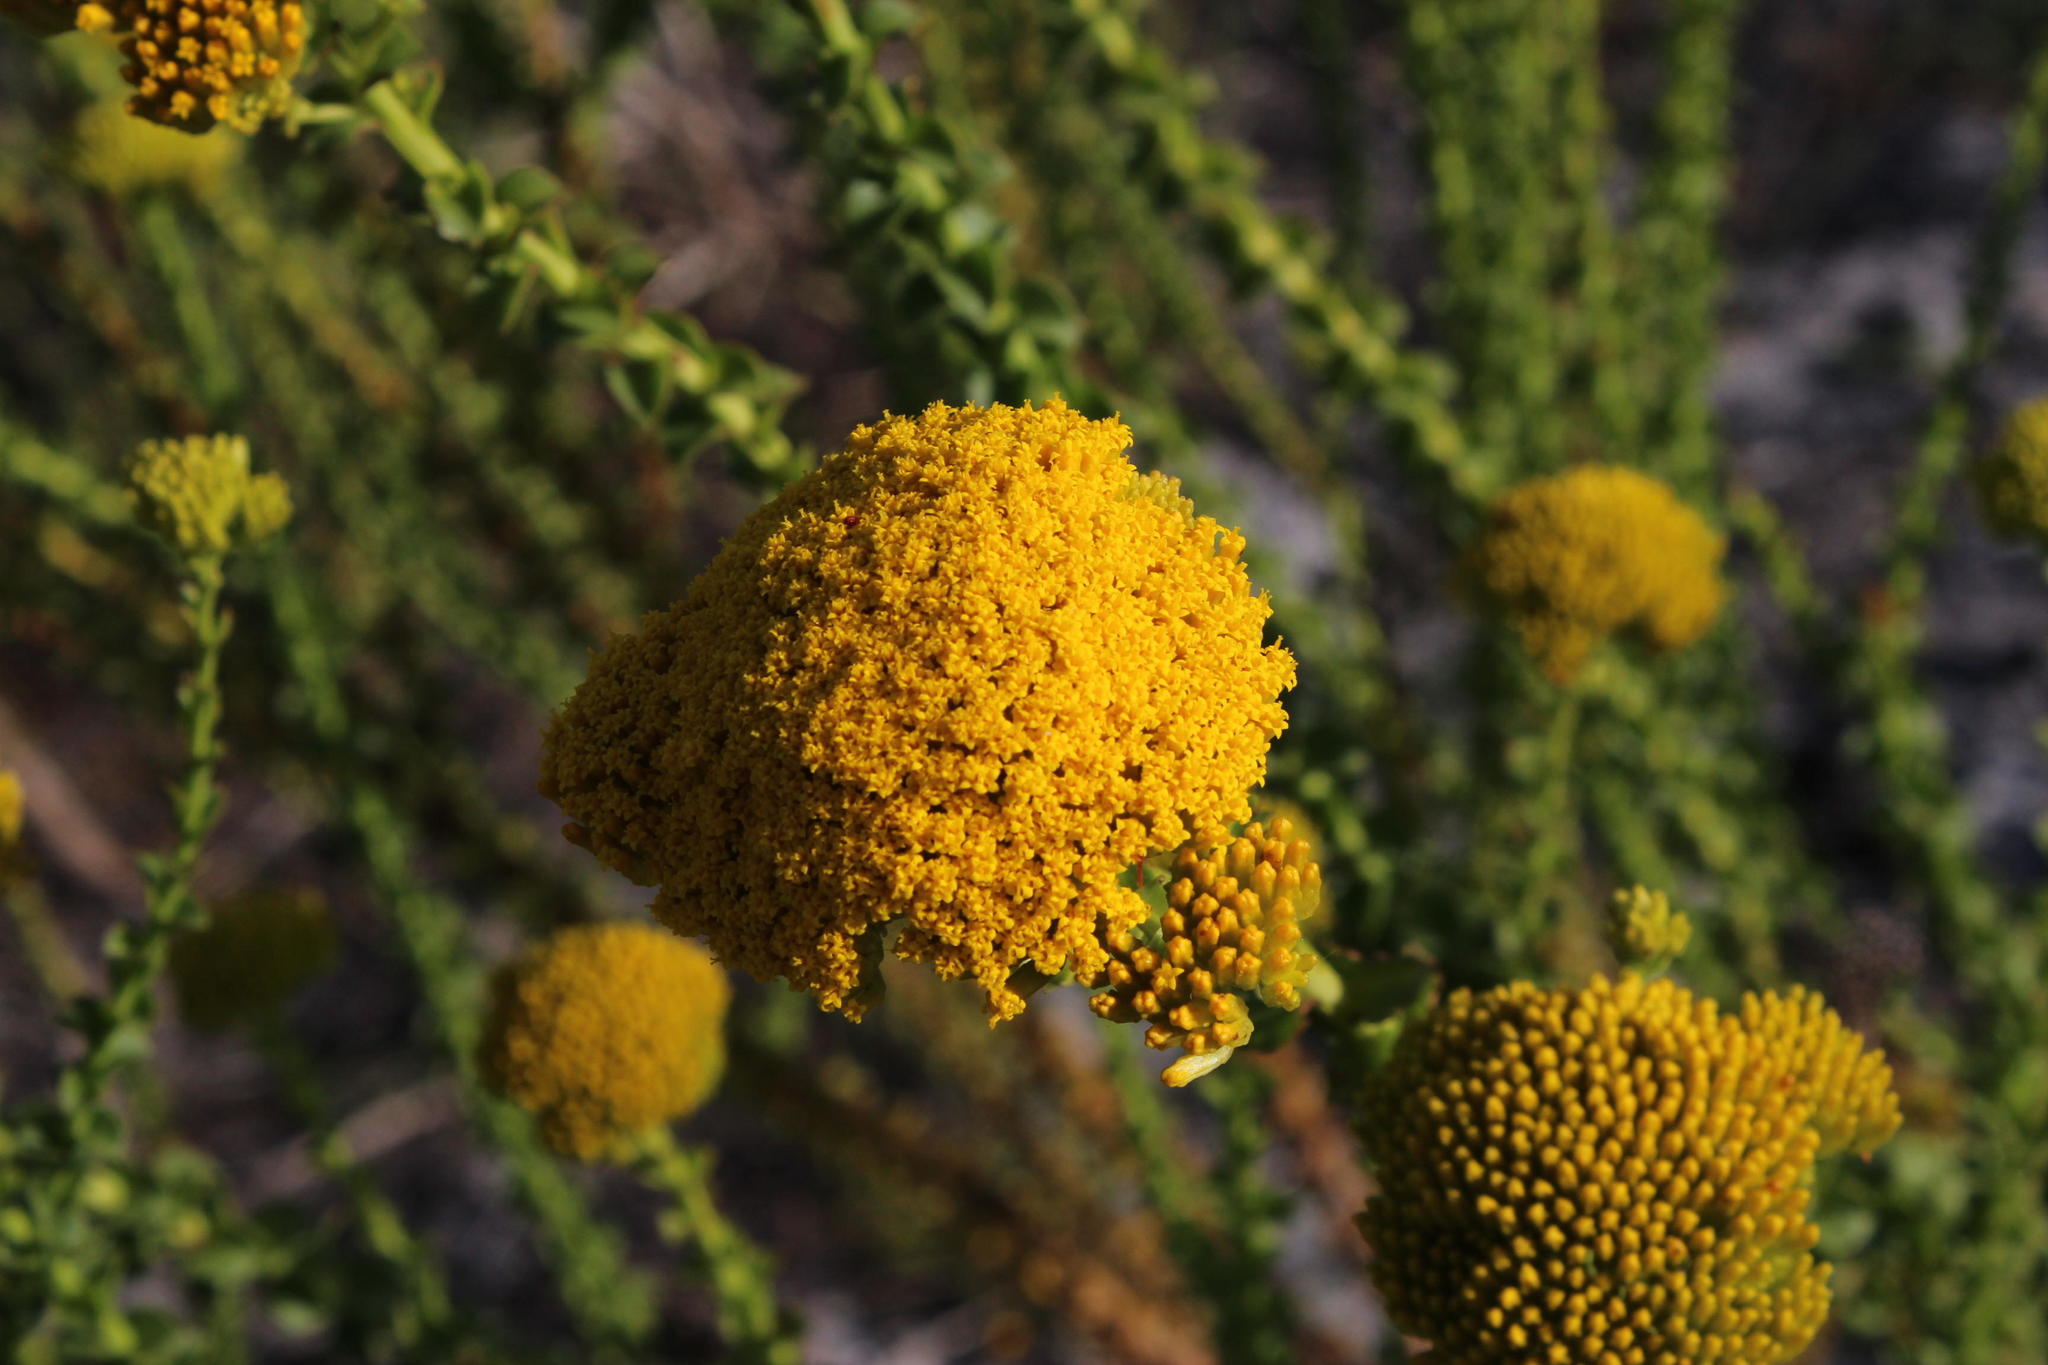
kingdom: Plantae
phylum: Tracheophyta
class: Magnoliopsida
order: Asterales
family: Asteraceae
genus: Athanasia
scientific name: Athanasia dentata
